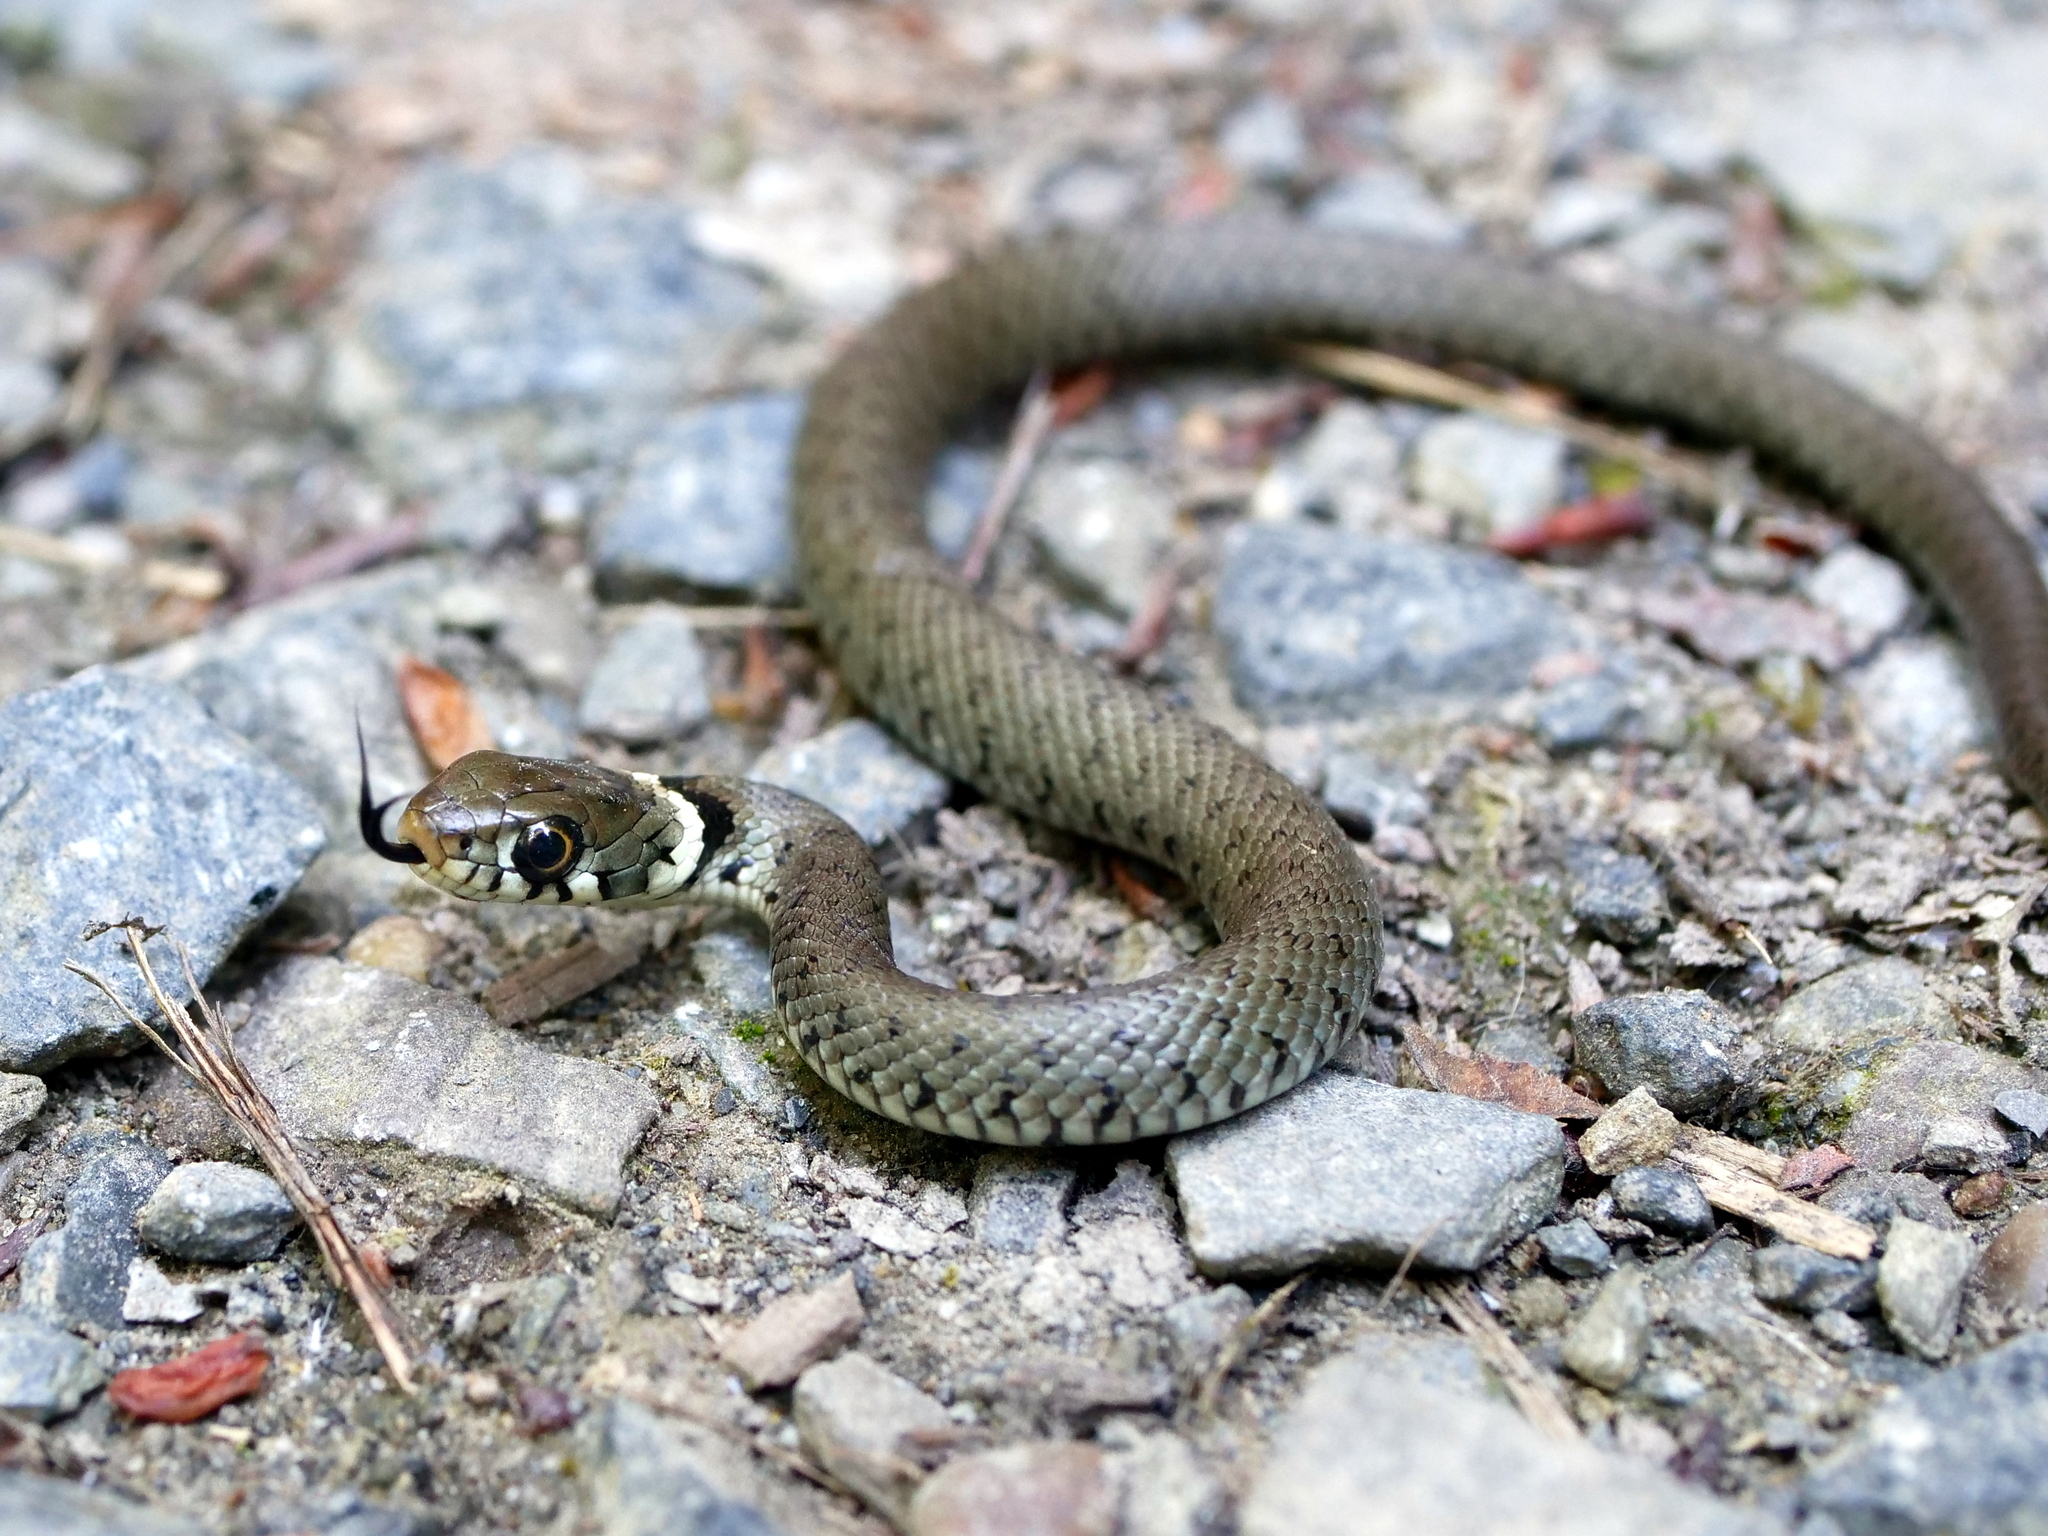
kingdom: Animalia
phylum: Chordata
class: Squamata
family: Colubridae
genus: Natrix
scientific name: Natrix helvetica
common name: Banded grass snake
